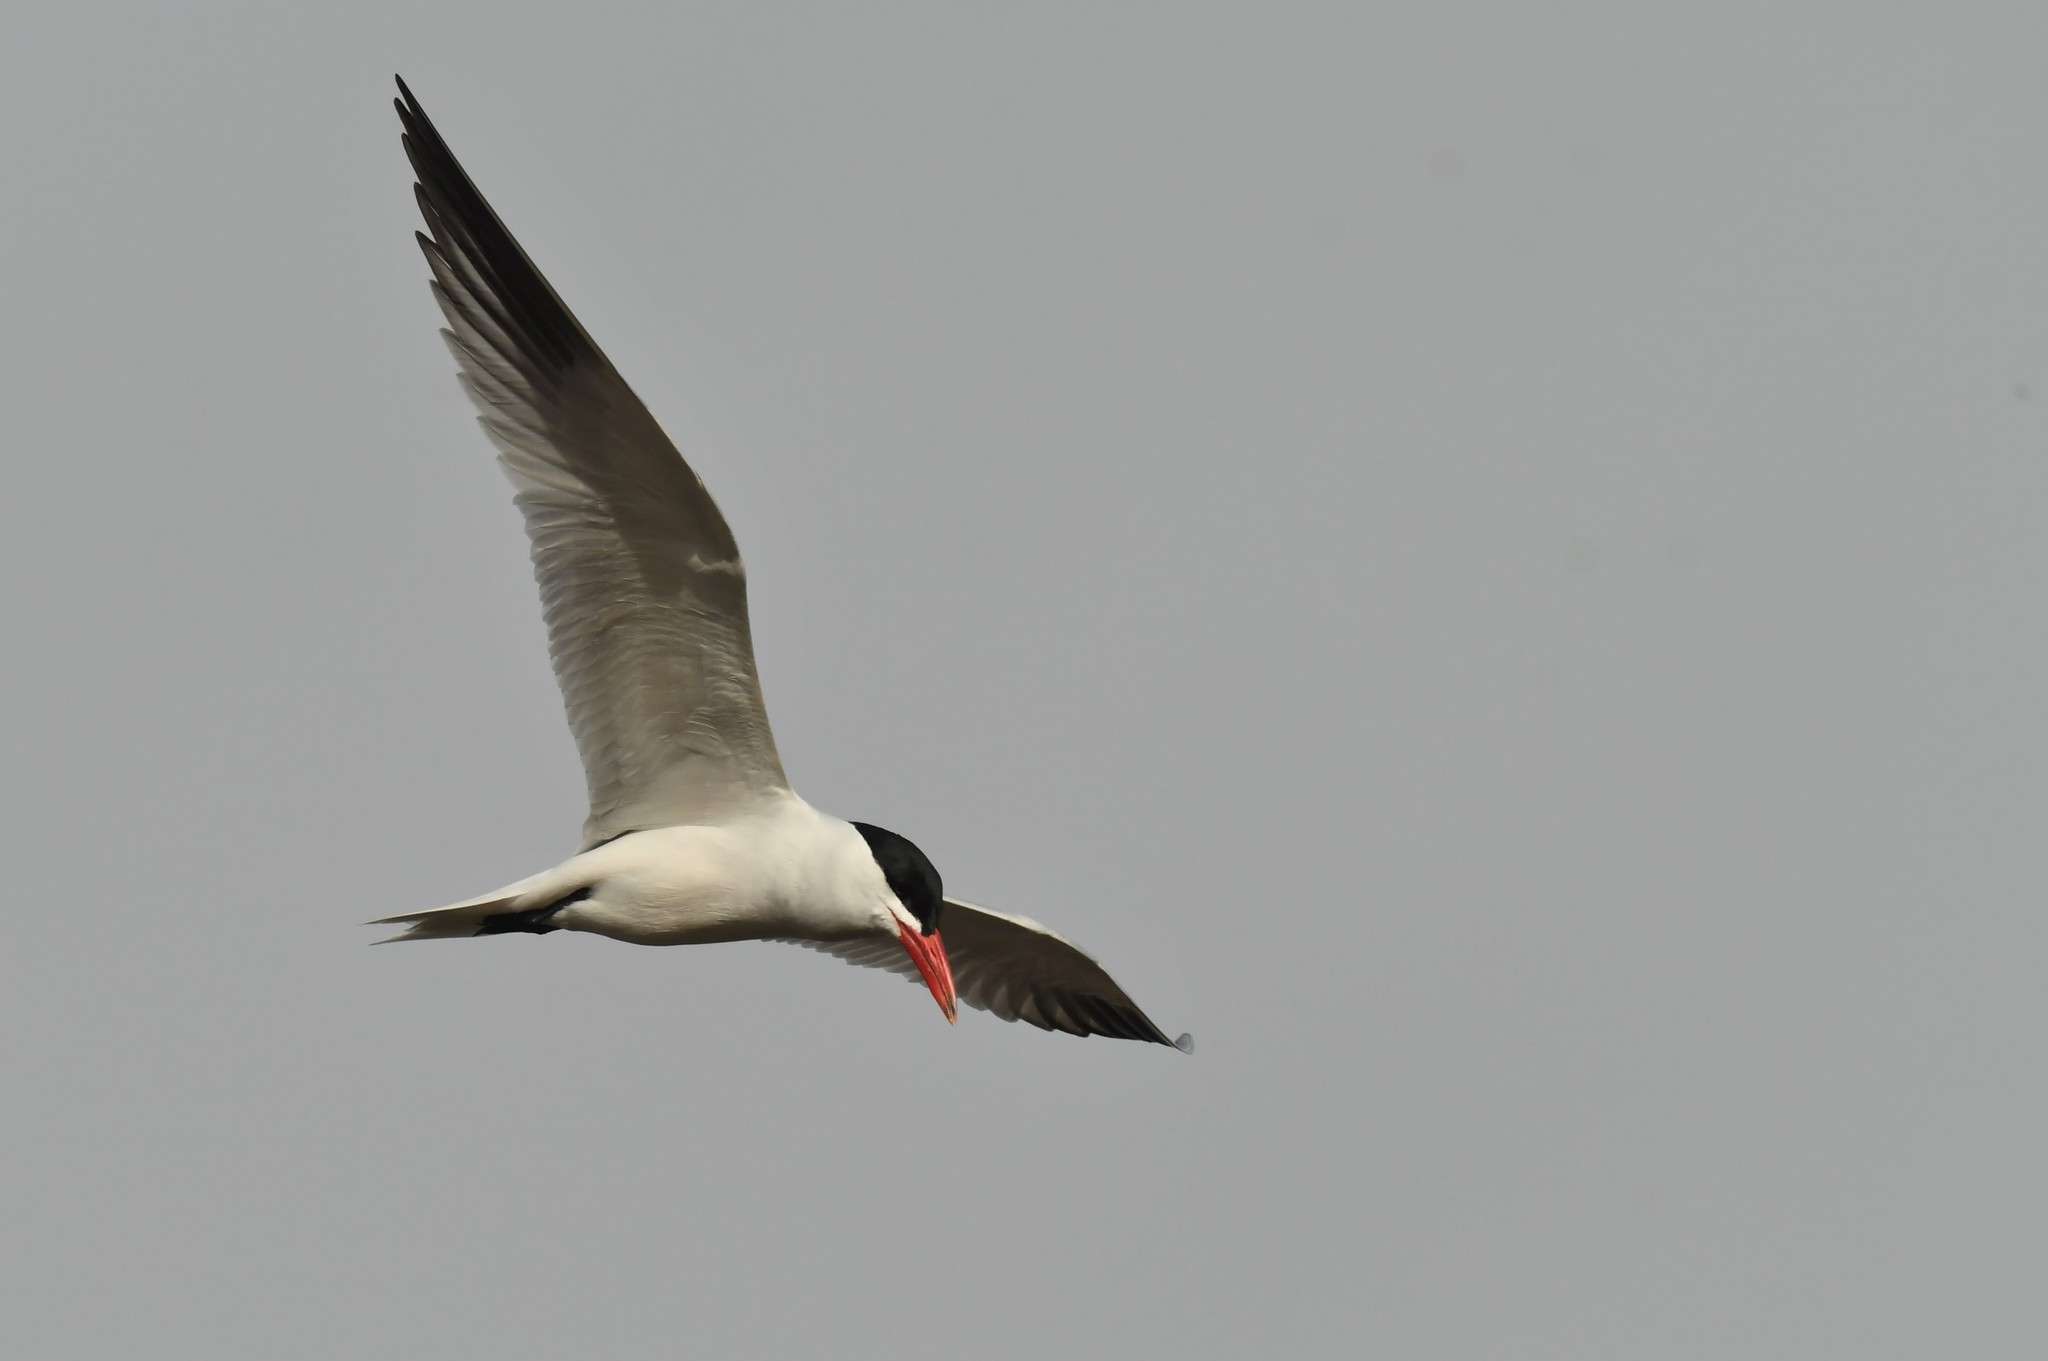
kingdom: Animalia
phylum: Chordata
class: Aves
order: Charadriiformes
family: Laridae
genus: Hydroprogne
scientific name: Hydroprogne caspia
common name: Caspian tern
